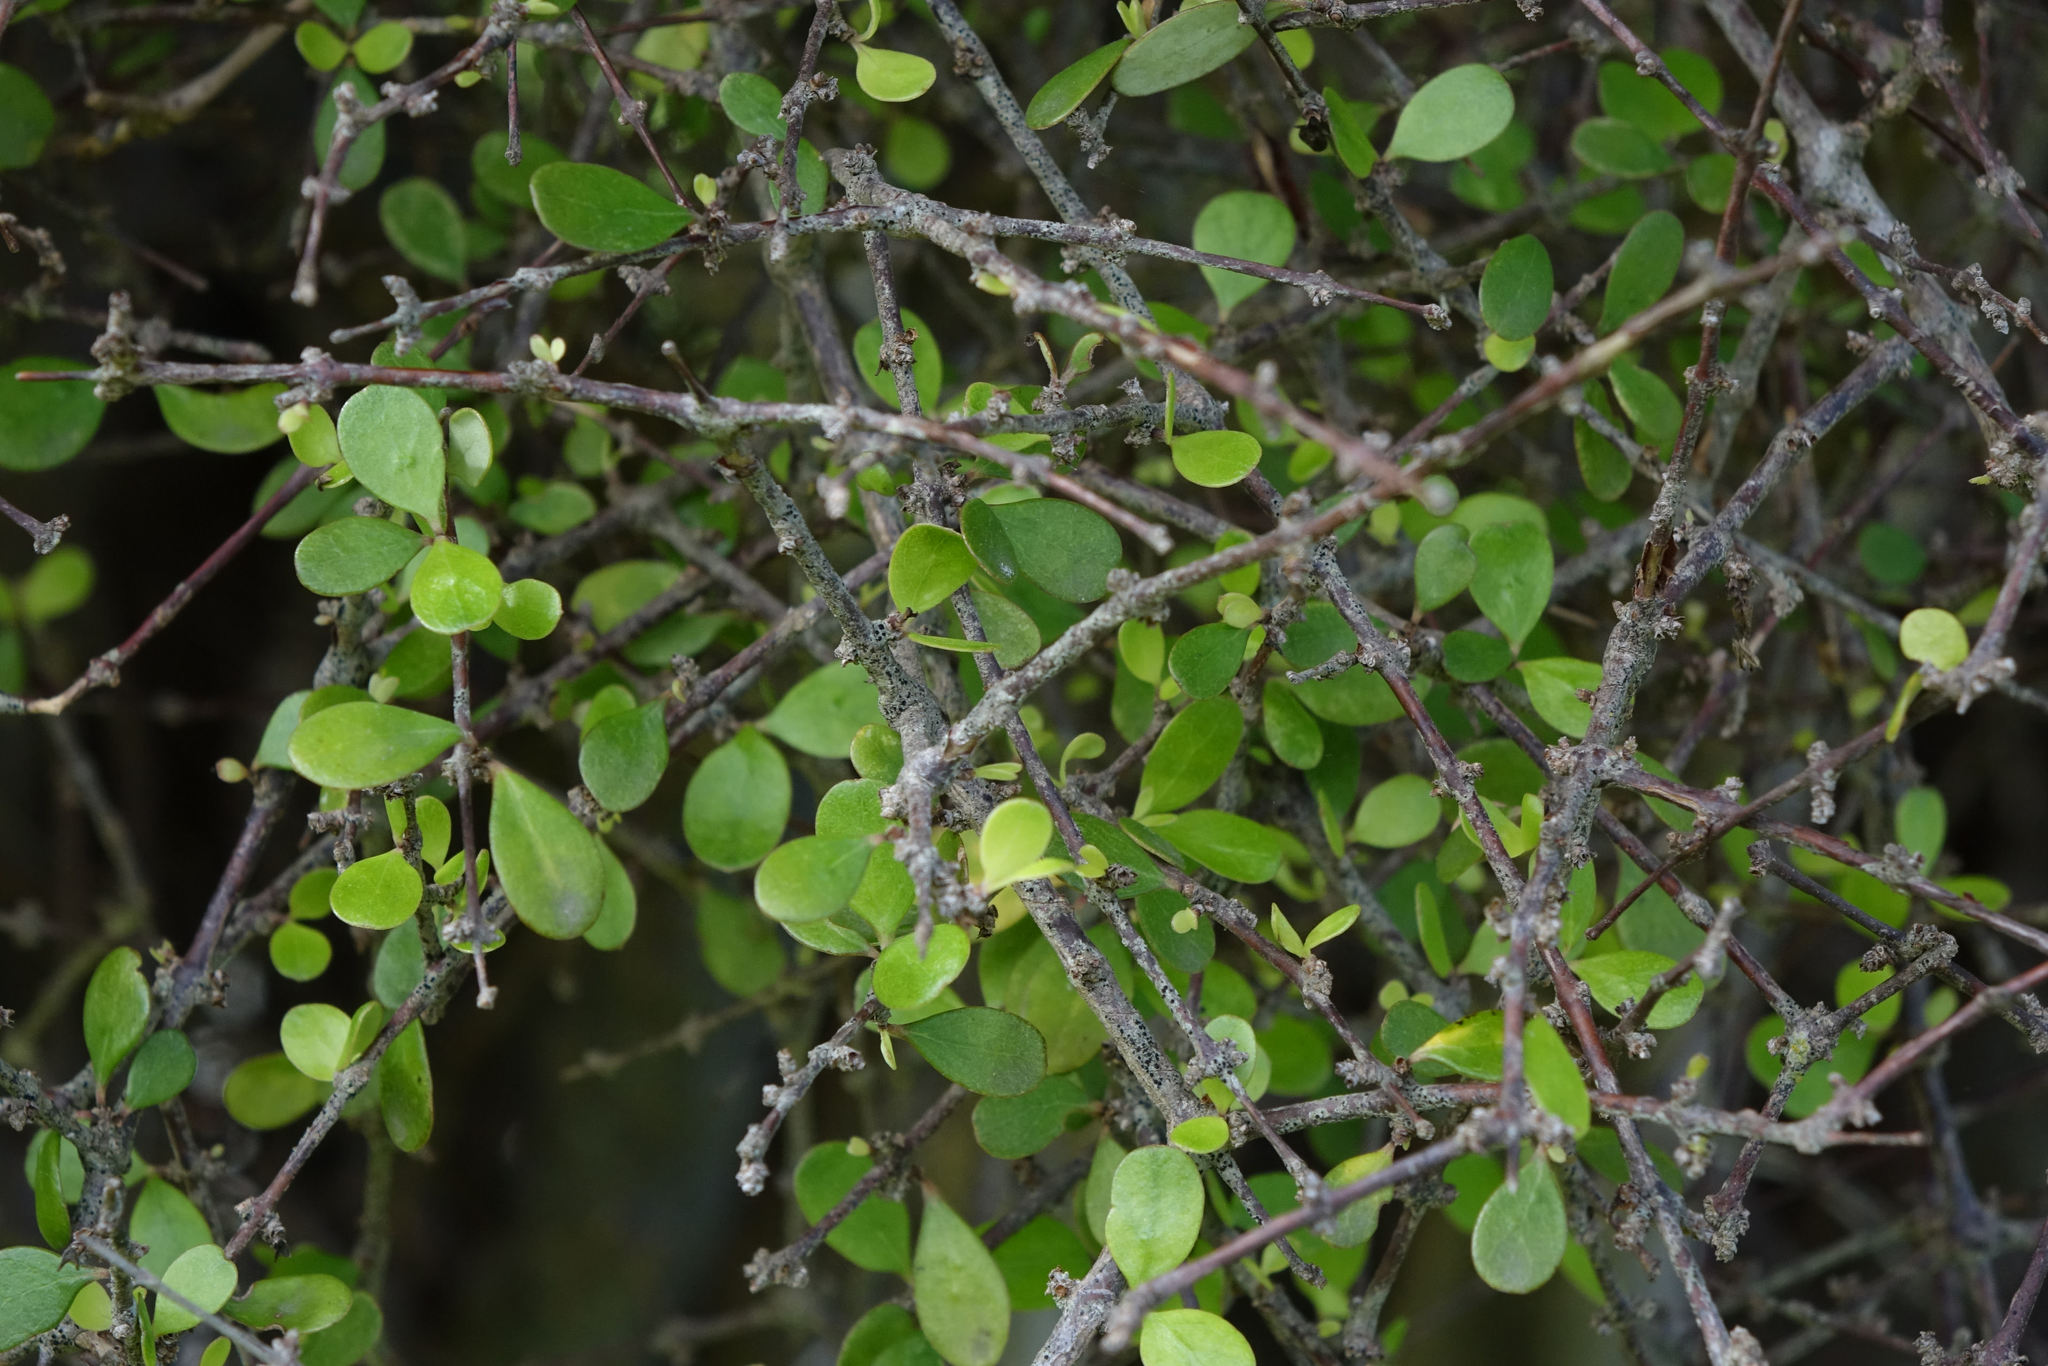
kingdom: Plantae
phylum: Tracheophyta
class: Magnoliopsida
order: Gentianales
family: Rubiaceae
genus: Coprosma
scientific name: Coprosma crassifolia
